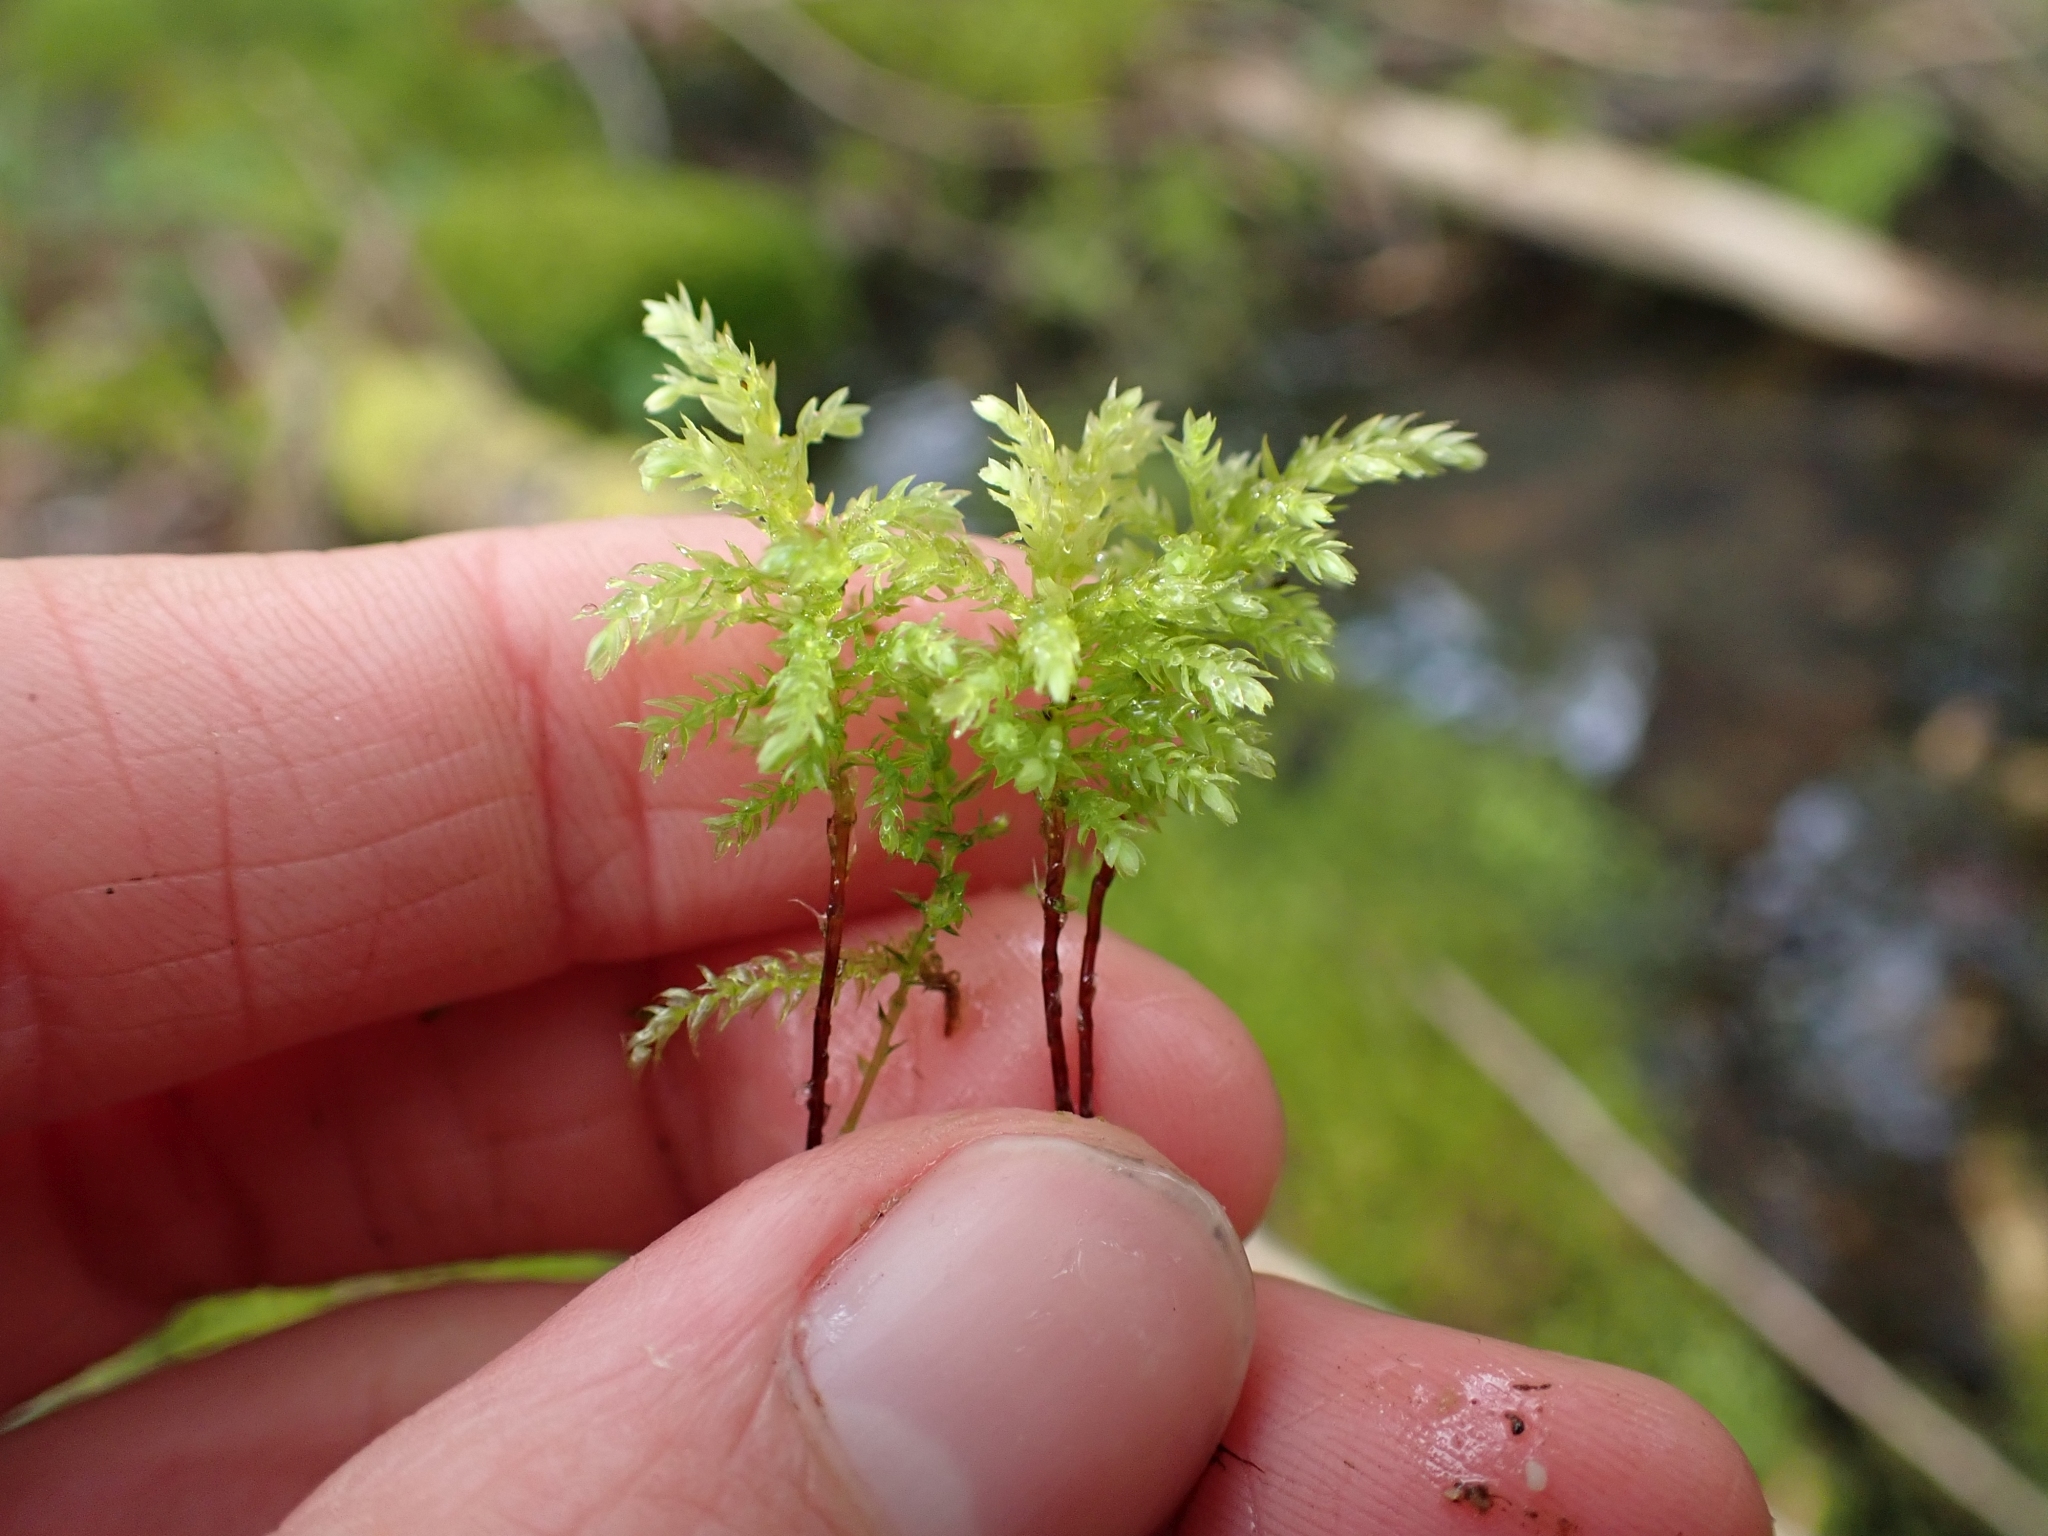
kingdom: Plantae
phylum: Bryophyta
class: Bryopsida
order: Bryales
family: Mniaceae
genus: Leucolepis
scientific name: Leucolepis acanthoneura
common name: Leucolepis umbrella moss
